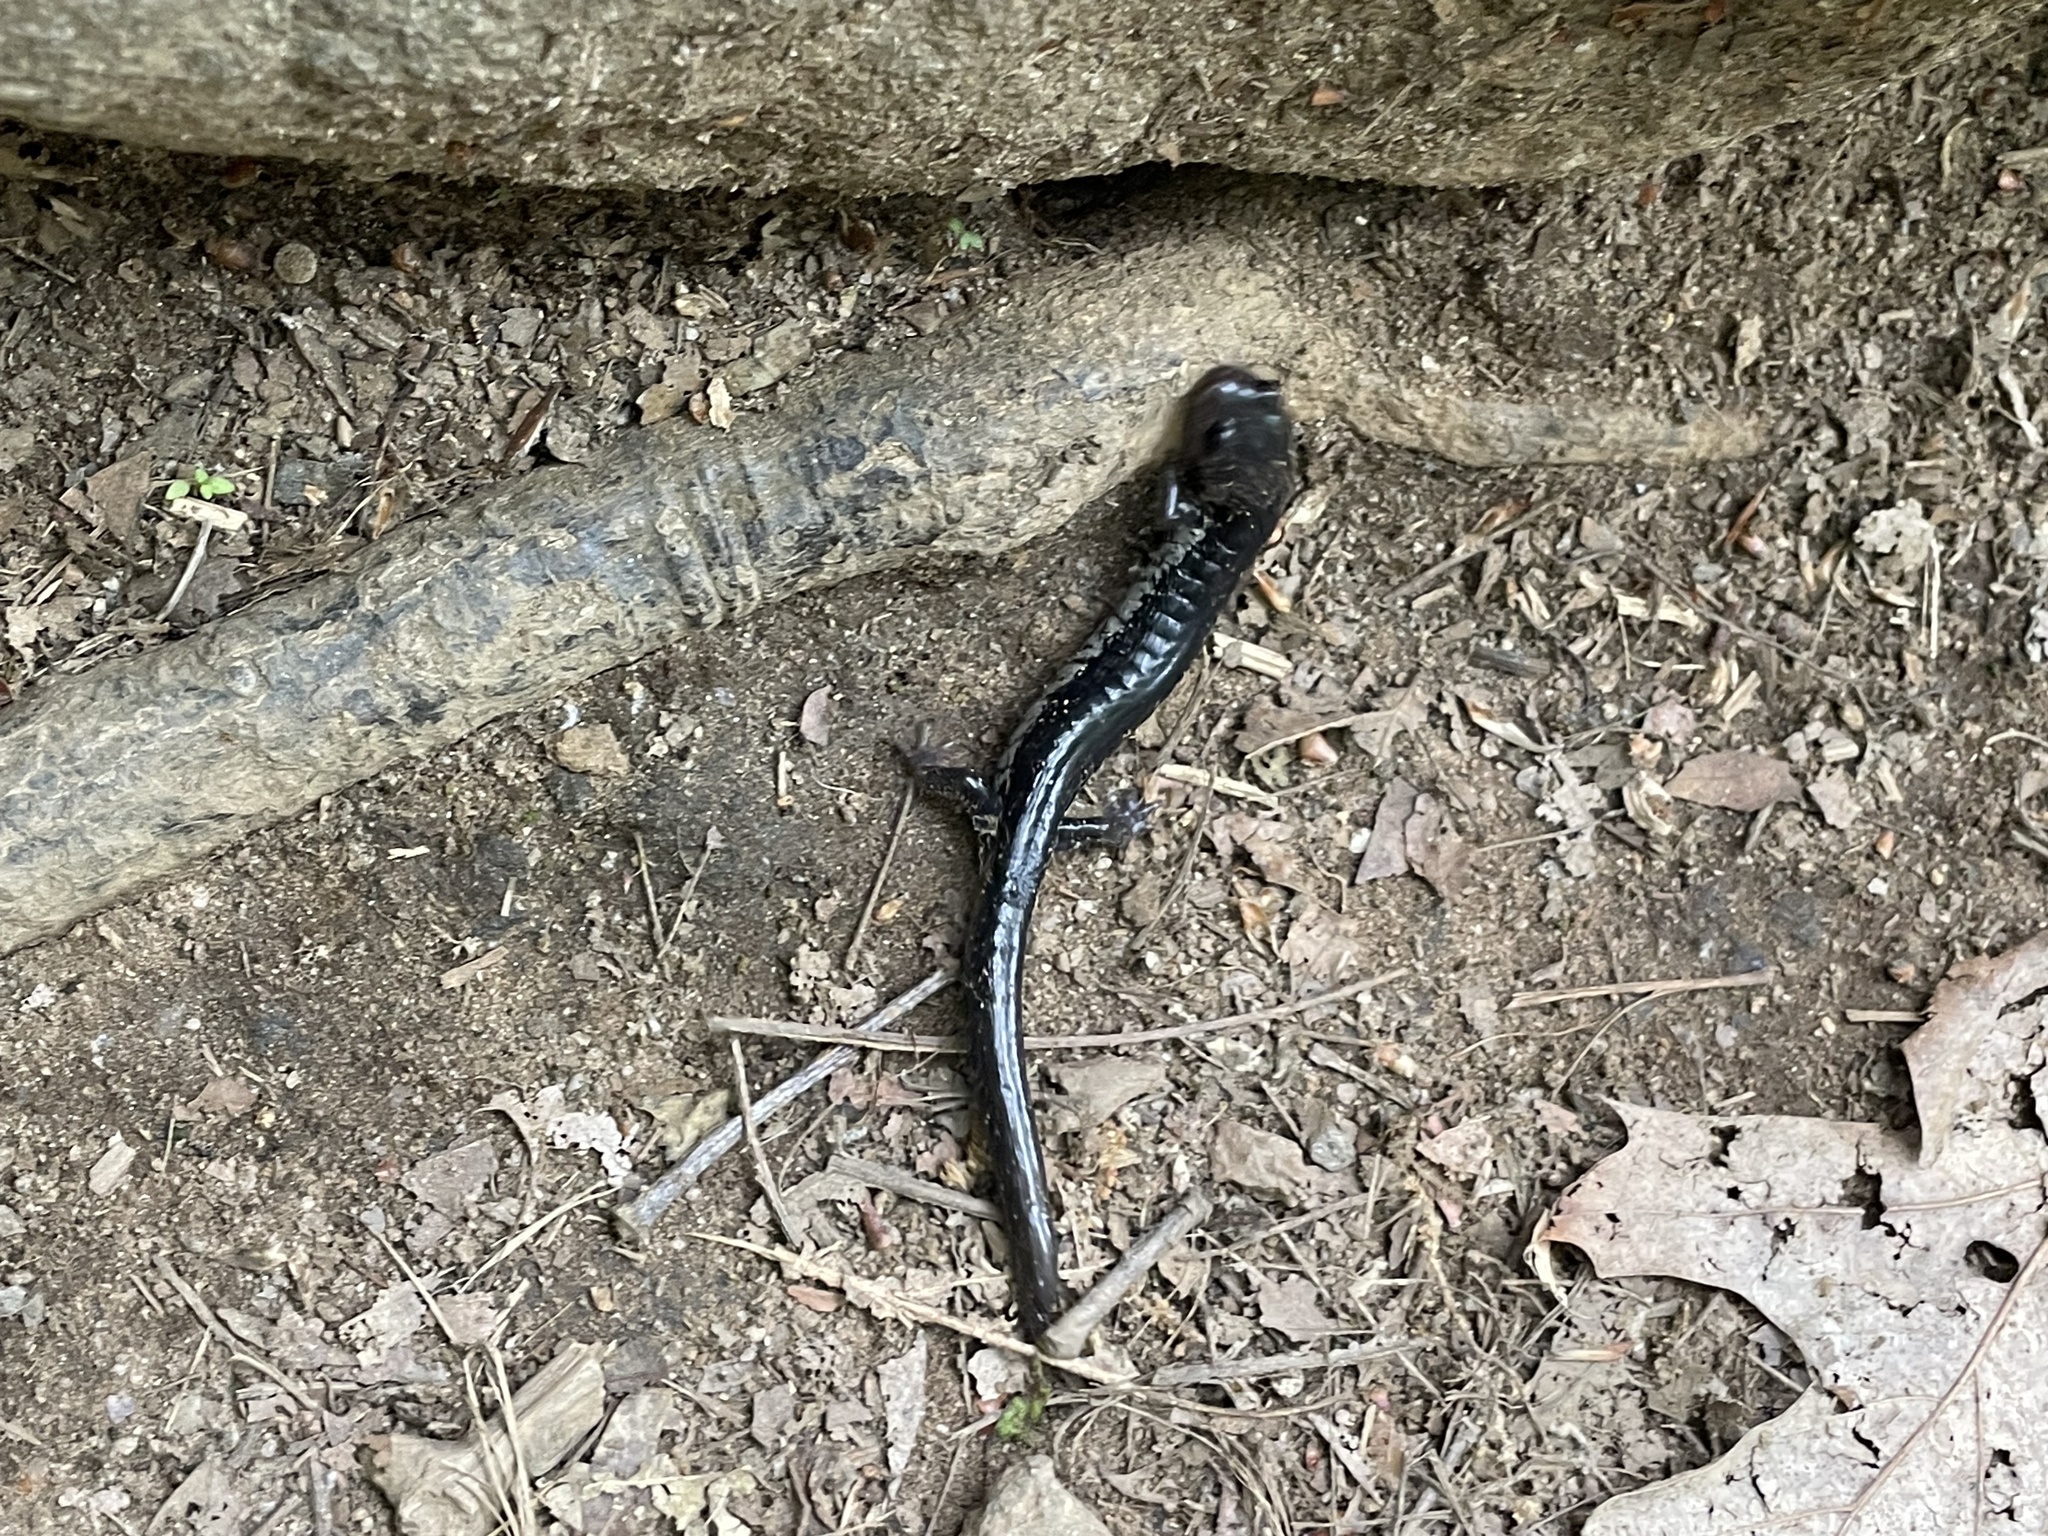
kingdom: Animalia
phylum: Chordata
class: Amphibia
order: Caudata
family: Plethodontidae
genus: Plethodon
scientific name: Plethodon chattahoochee
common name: Chattahoochee slimy salamander
